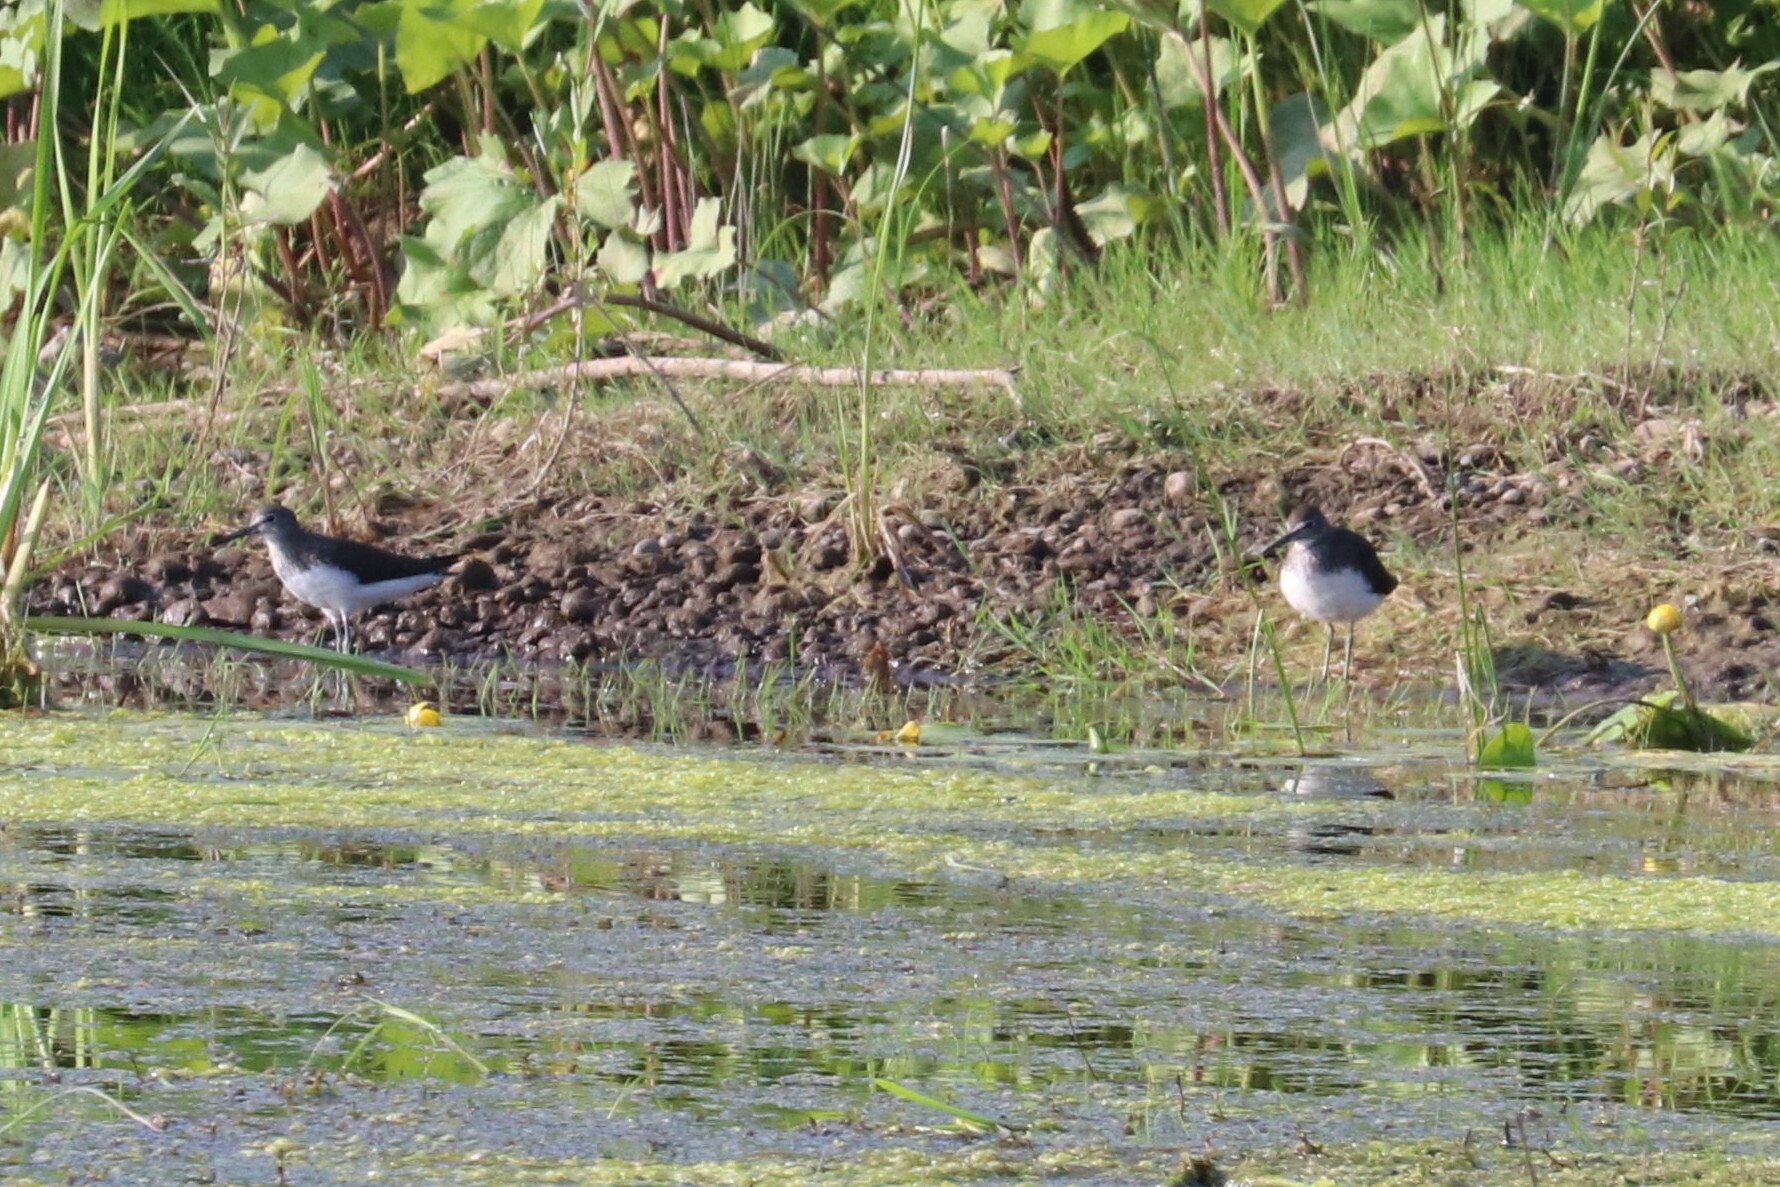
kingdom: Animalia
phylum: Chordata
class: Aves
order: Charadriiformes
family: Scolopacidae
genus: Tringa
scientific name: Tringa ochropus
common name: Green sandpiper
